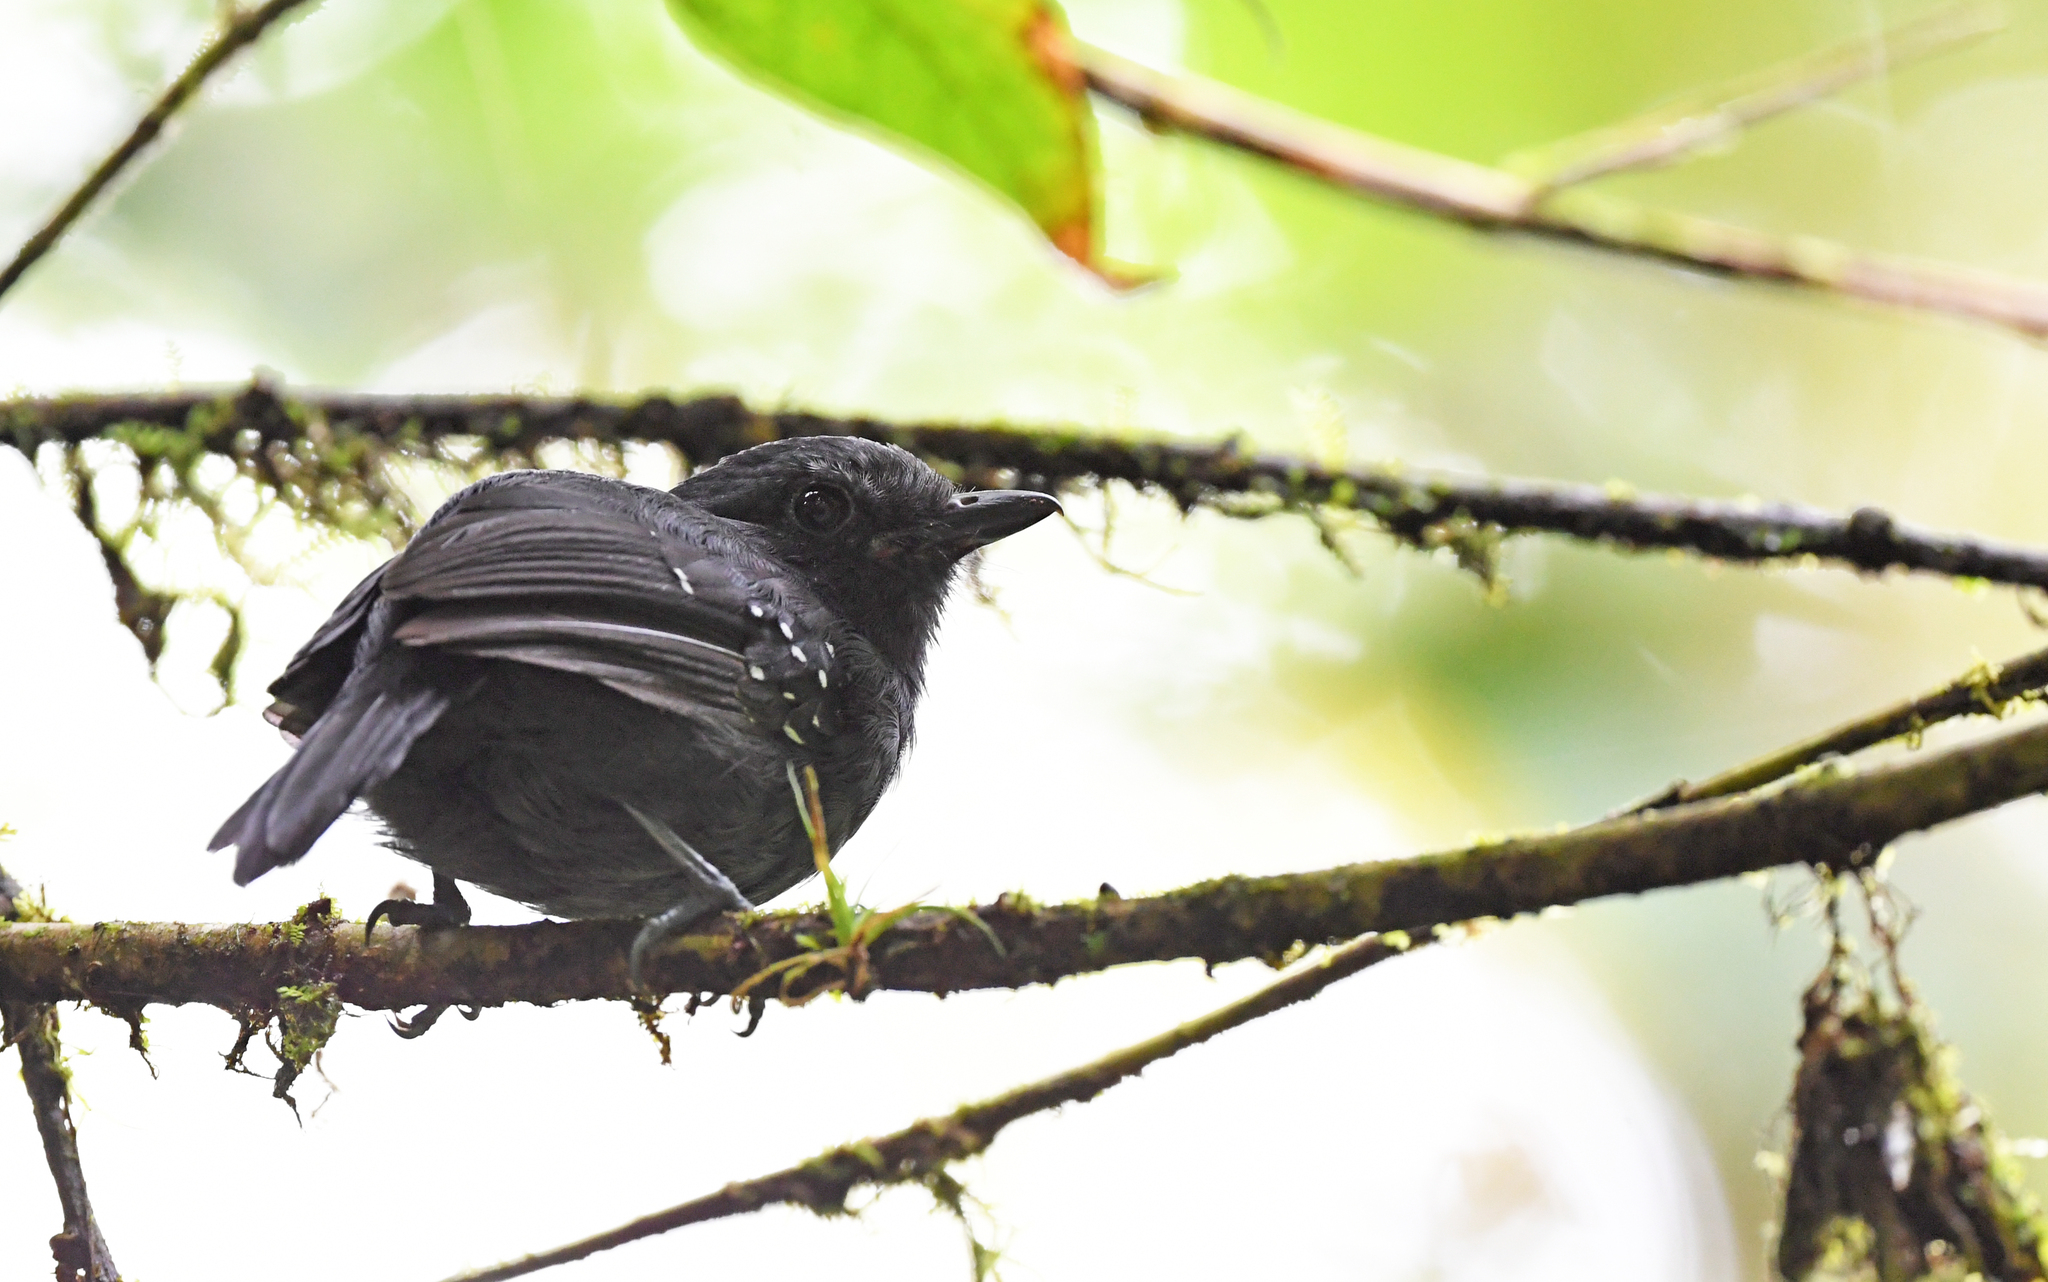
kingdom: Animalia
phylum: Chordata
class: Aves
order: Passeriformes
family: Thamnophilidae
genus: Dysithamnus
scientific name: Dysithamnus occidentalis
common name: Bicolored antvireo
